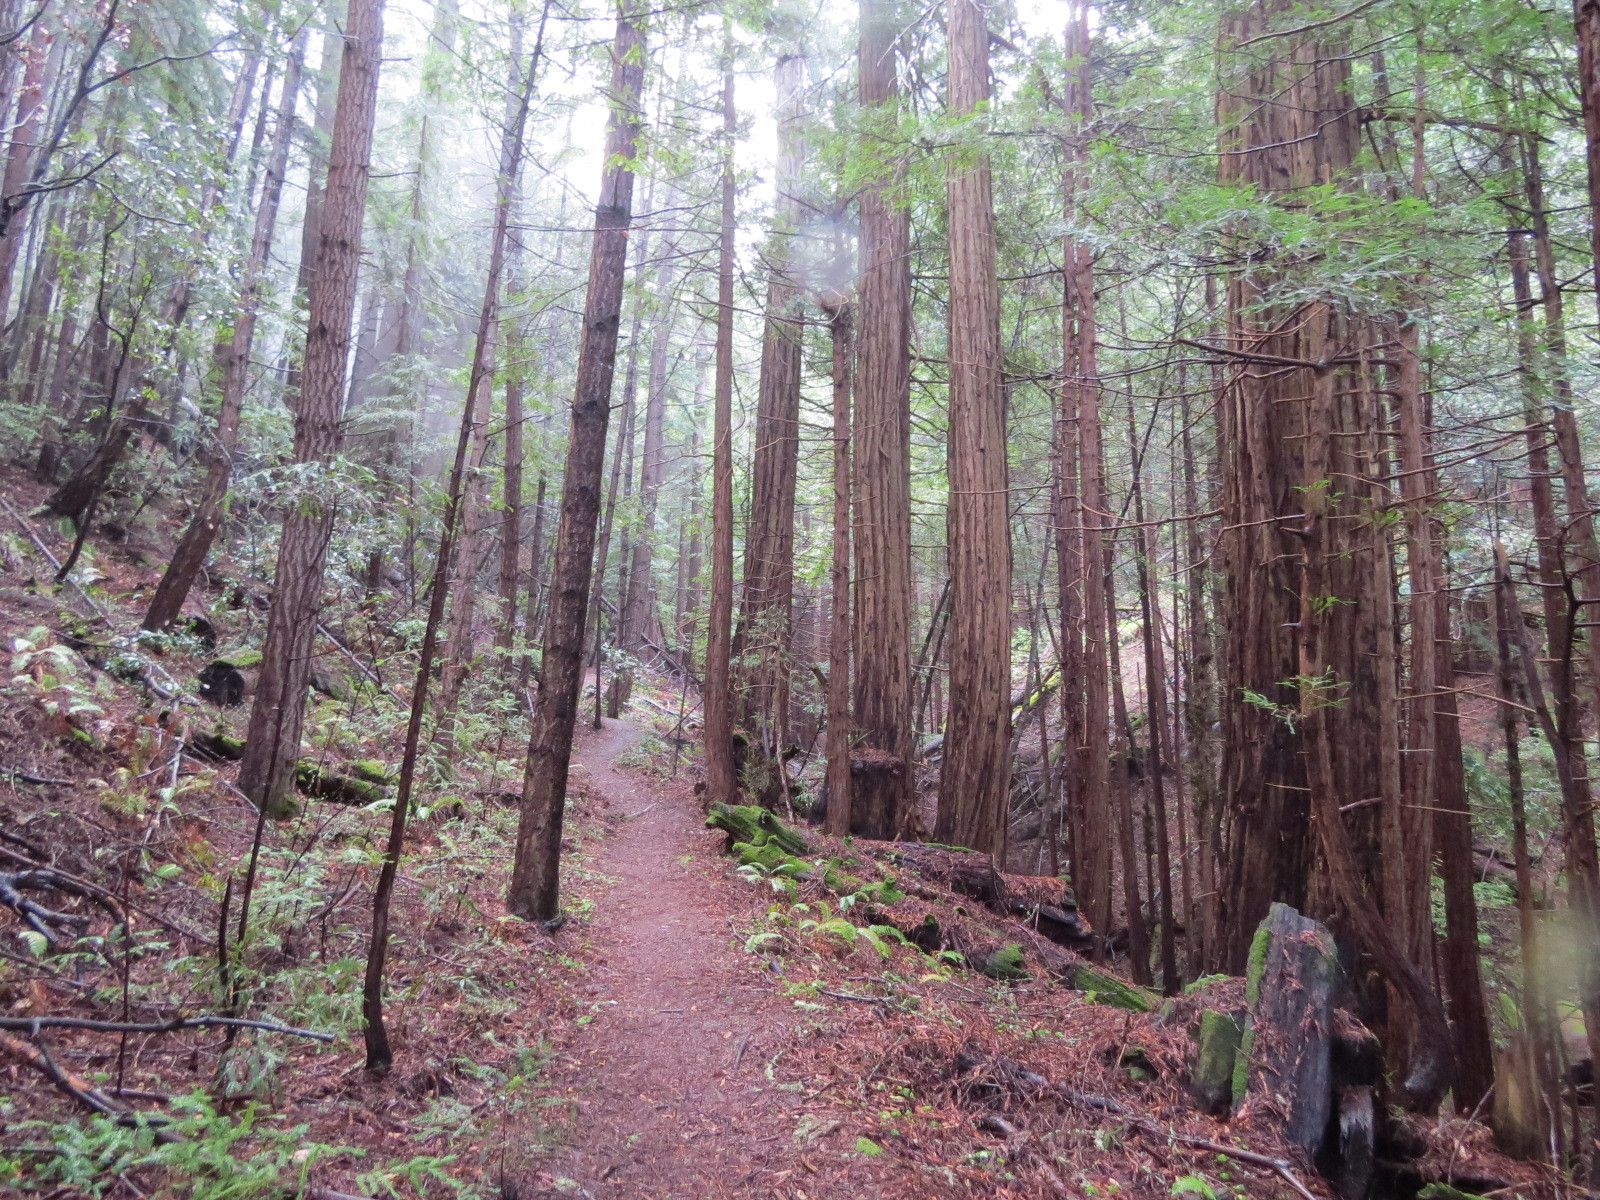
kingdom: Plantae
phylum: Tracheophyta
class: Pinopsida
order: Pinales
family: Cupressaceae
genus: Sequoia
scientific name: Sequoia sempervirens
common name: Coast redwood
